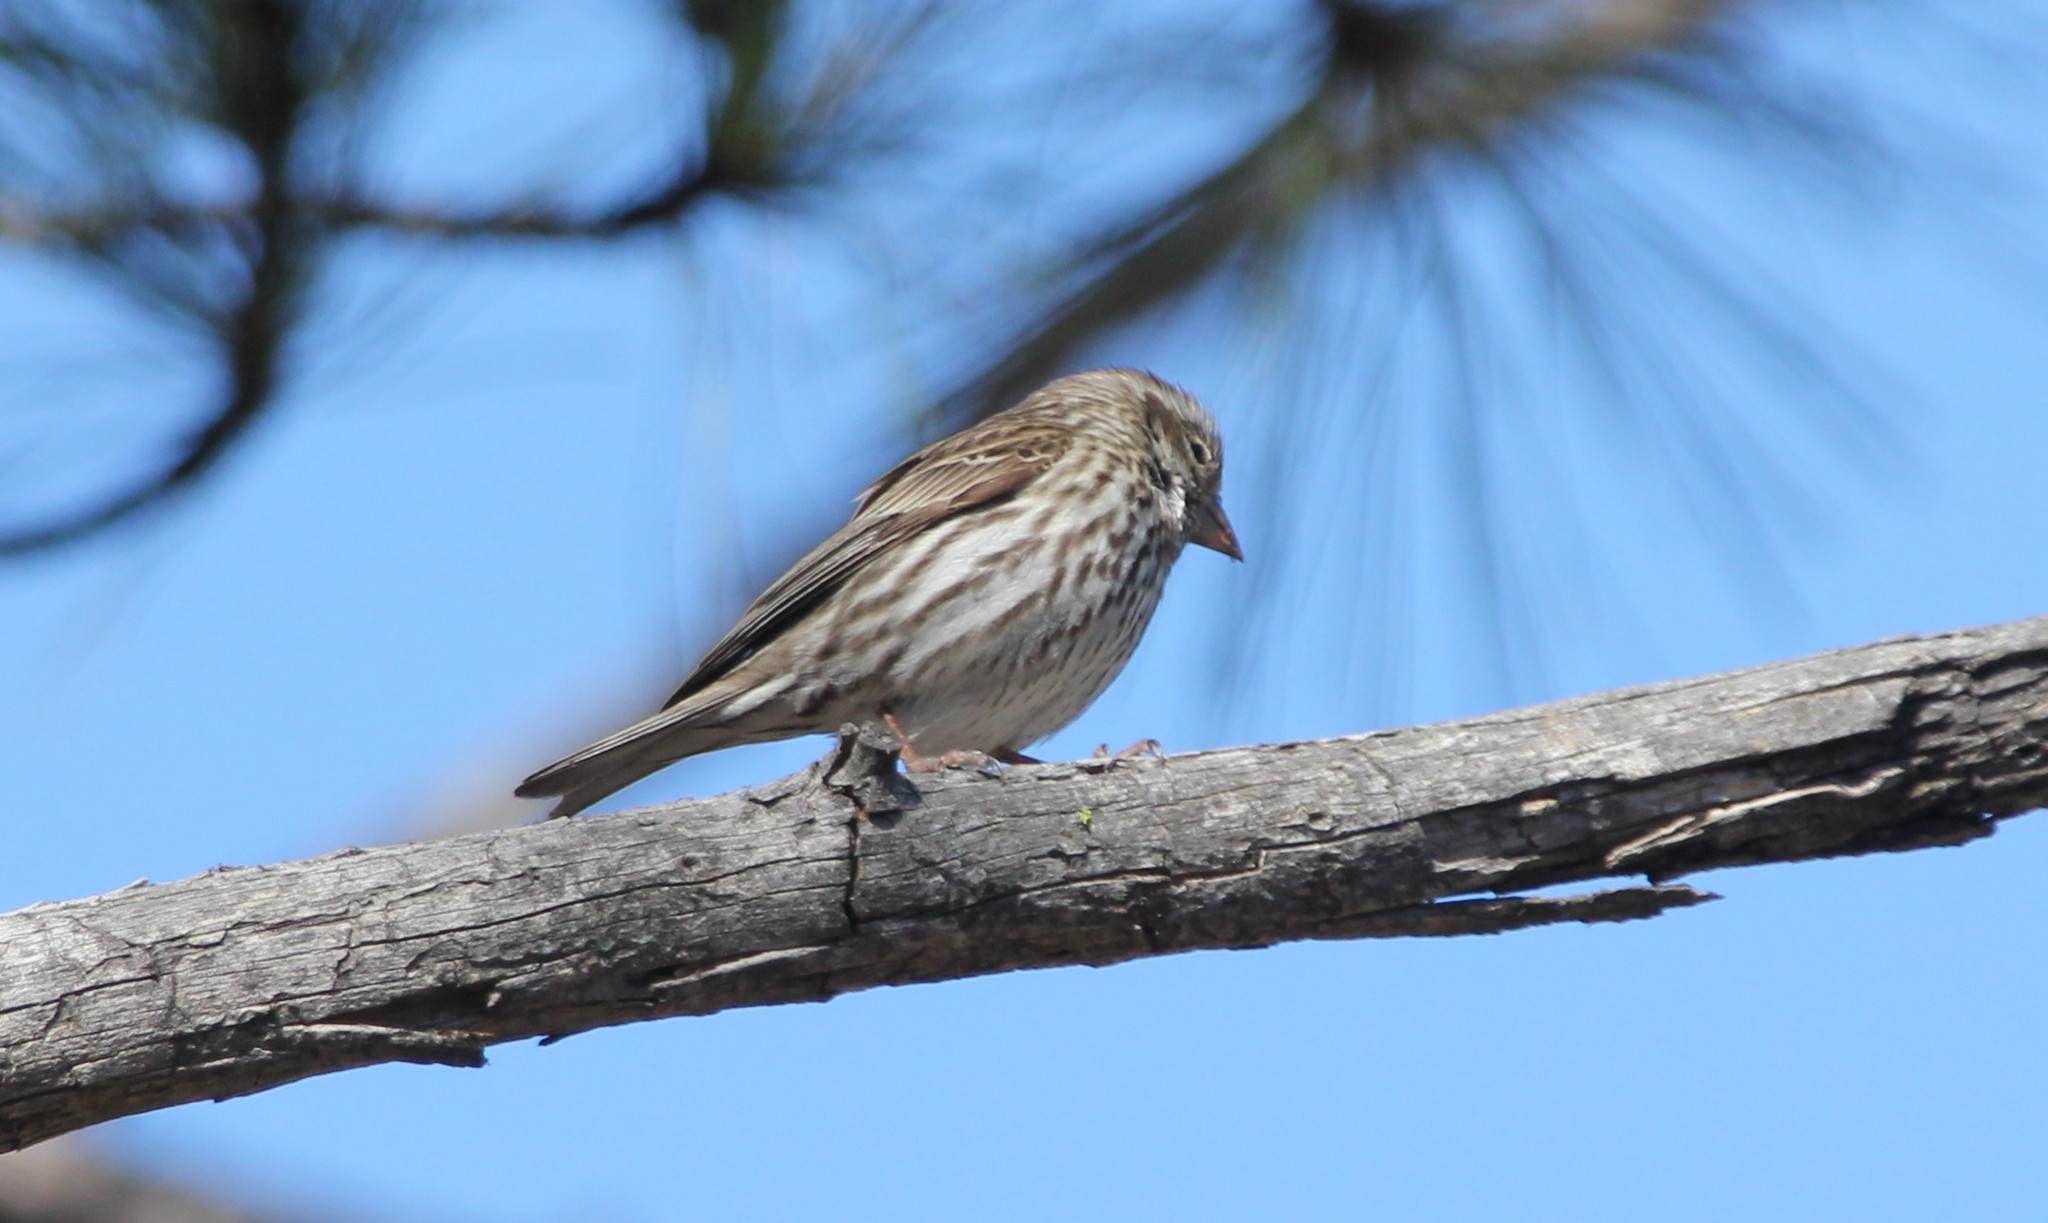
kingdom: Animalia
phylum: Chordata
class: Aves
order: Passeriformes
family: Fringillidae
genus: Haemorhous
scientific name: Haemorhous purpureus
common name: Purple finch
